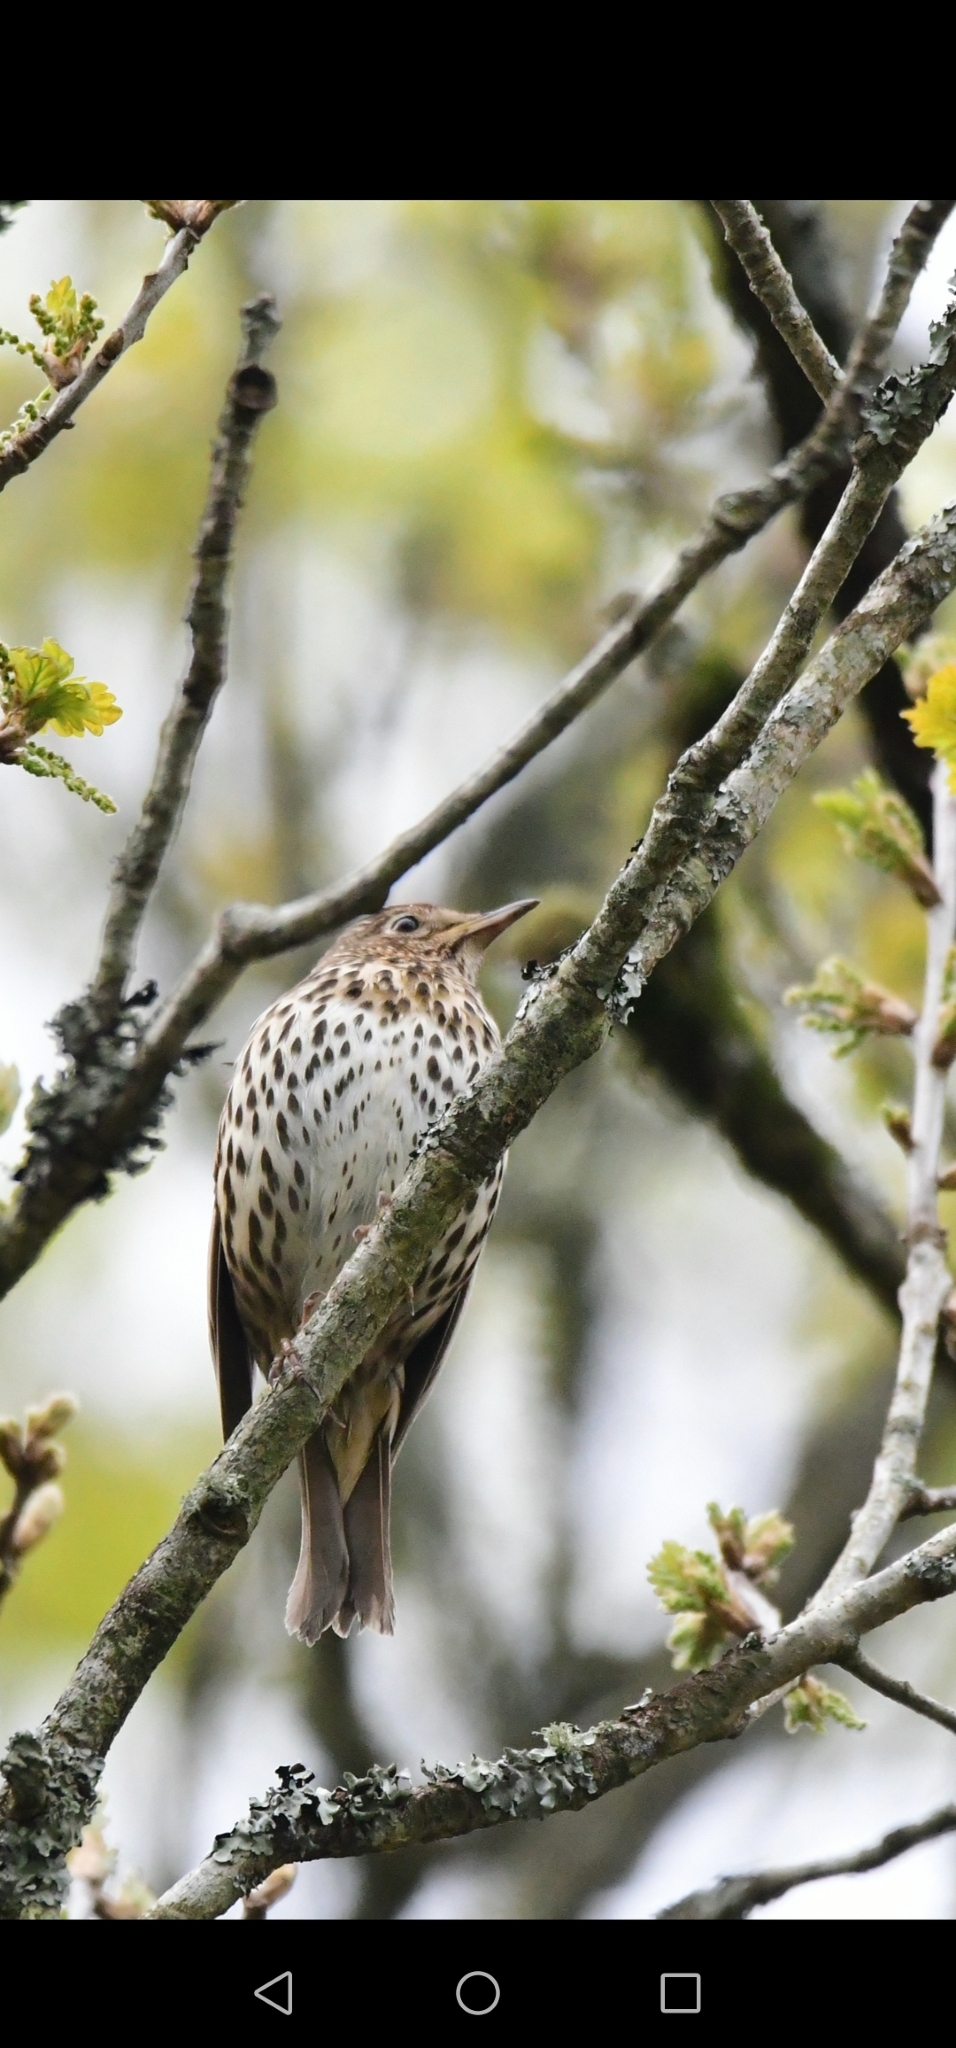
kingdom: Animalia
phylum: Chordata
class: Aves
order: Passeriformes
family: Turdidae
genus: Turdus
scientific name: Turdus philomelos
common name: Song thrush
